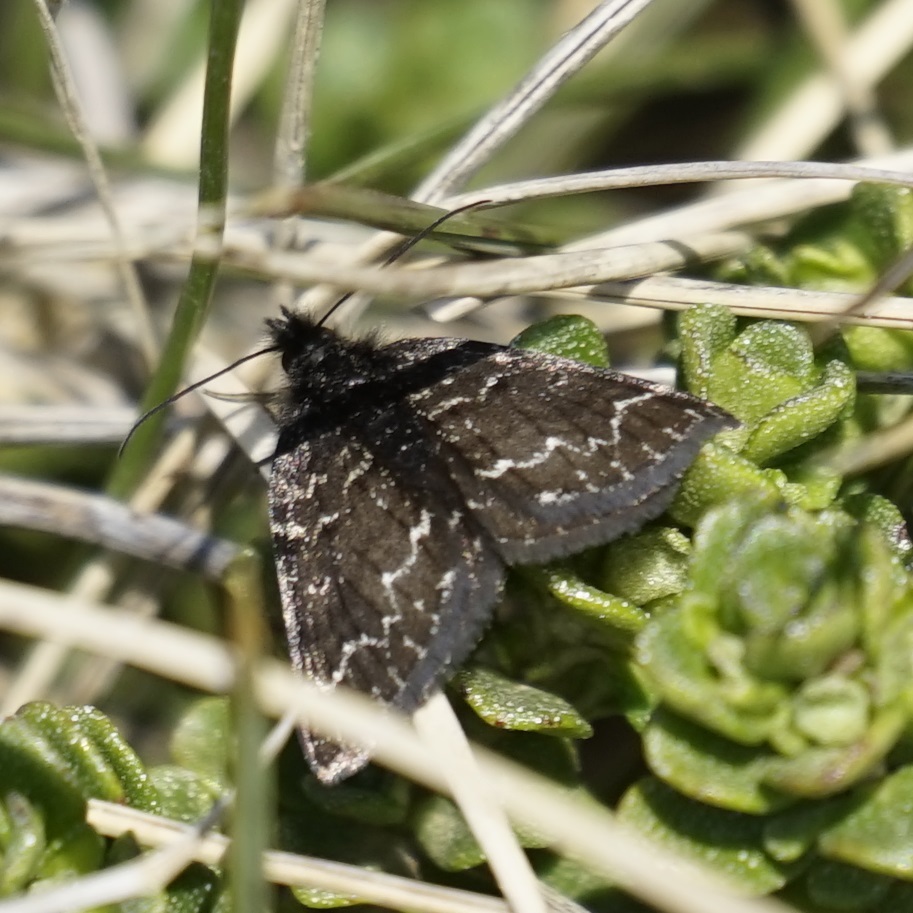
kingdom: Animalia
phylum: Arthropoda
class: Insecta
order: Lepidoptera
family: Geometridae
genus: Chrysolarentia
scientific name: Chrysolarentia melanchlaena
